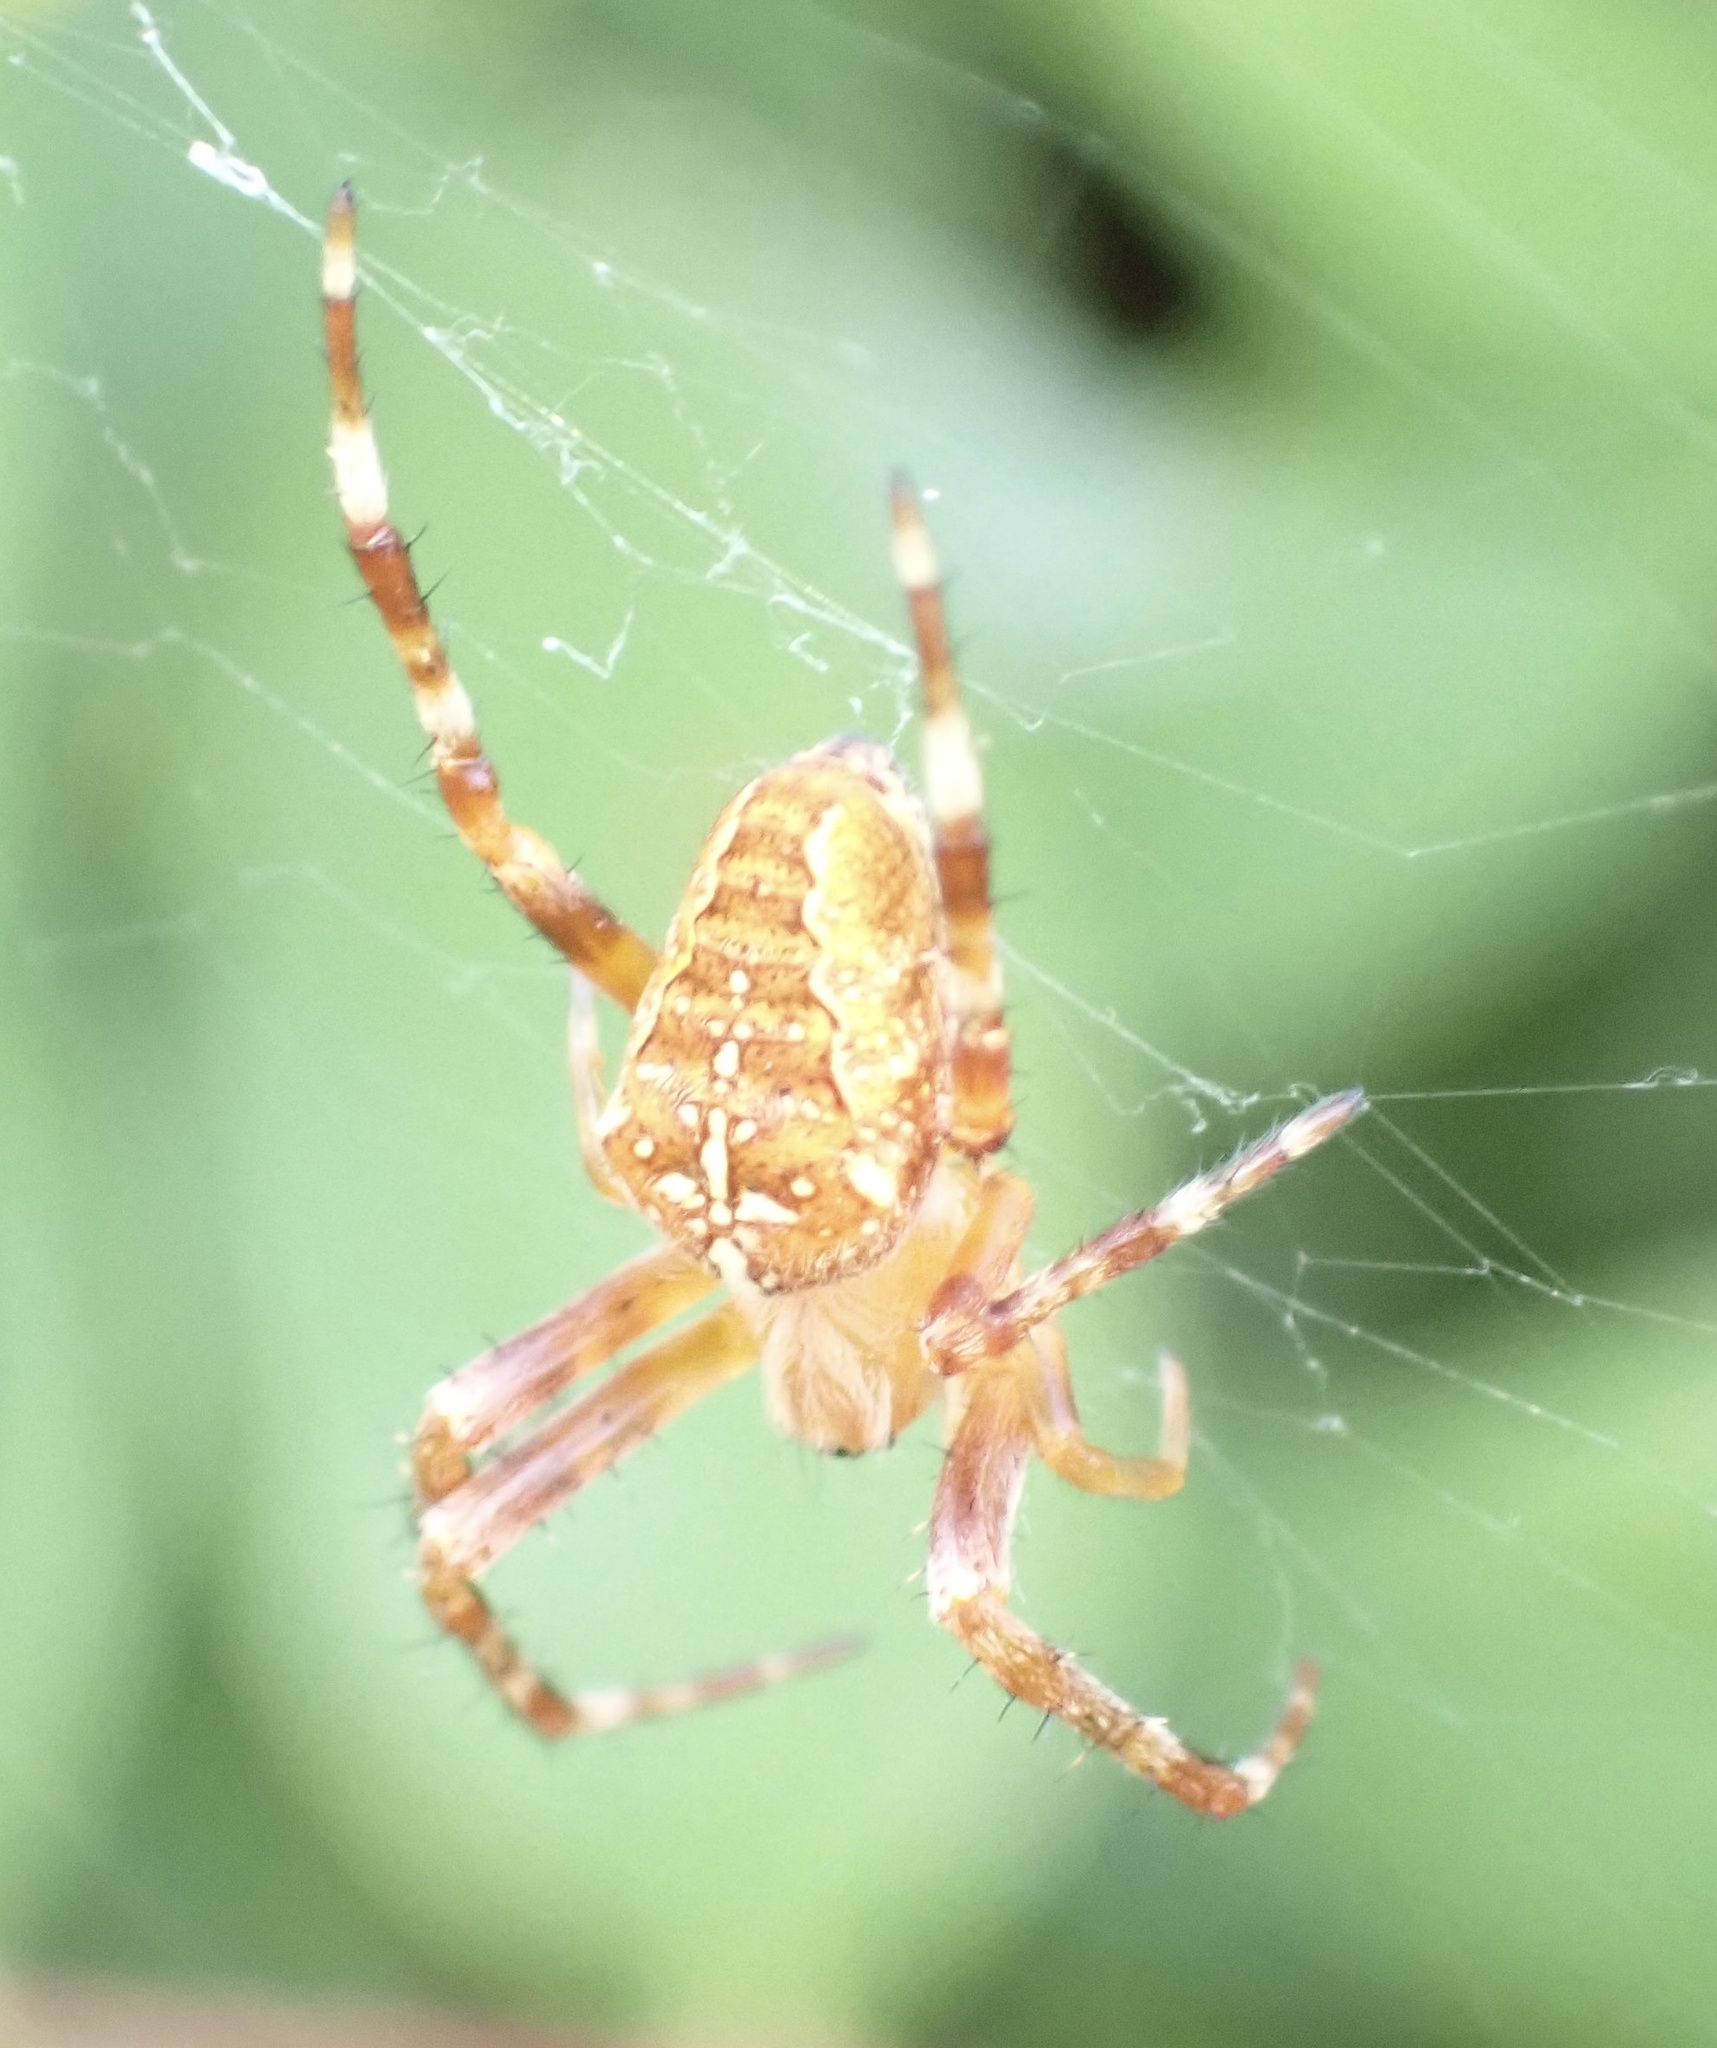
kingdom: Animalia
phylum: Arthropoda
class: Arachnida
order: Araneae
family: Araneidae
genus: Araneus
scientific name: Araneus diadematus
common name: Cross orbweaver
